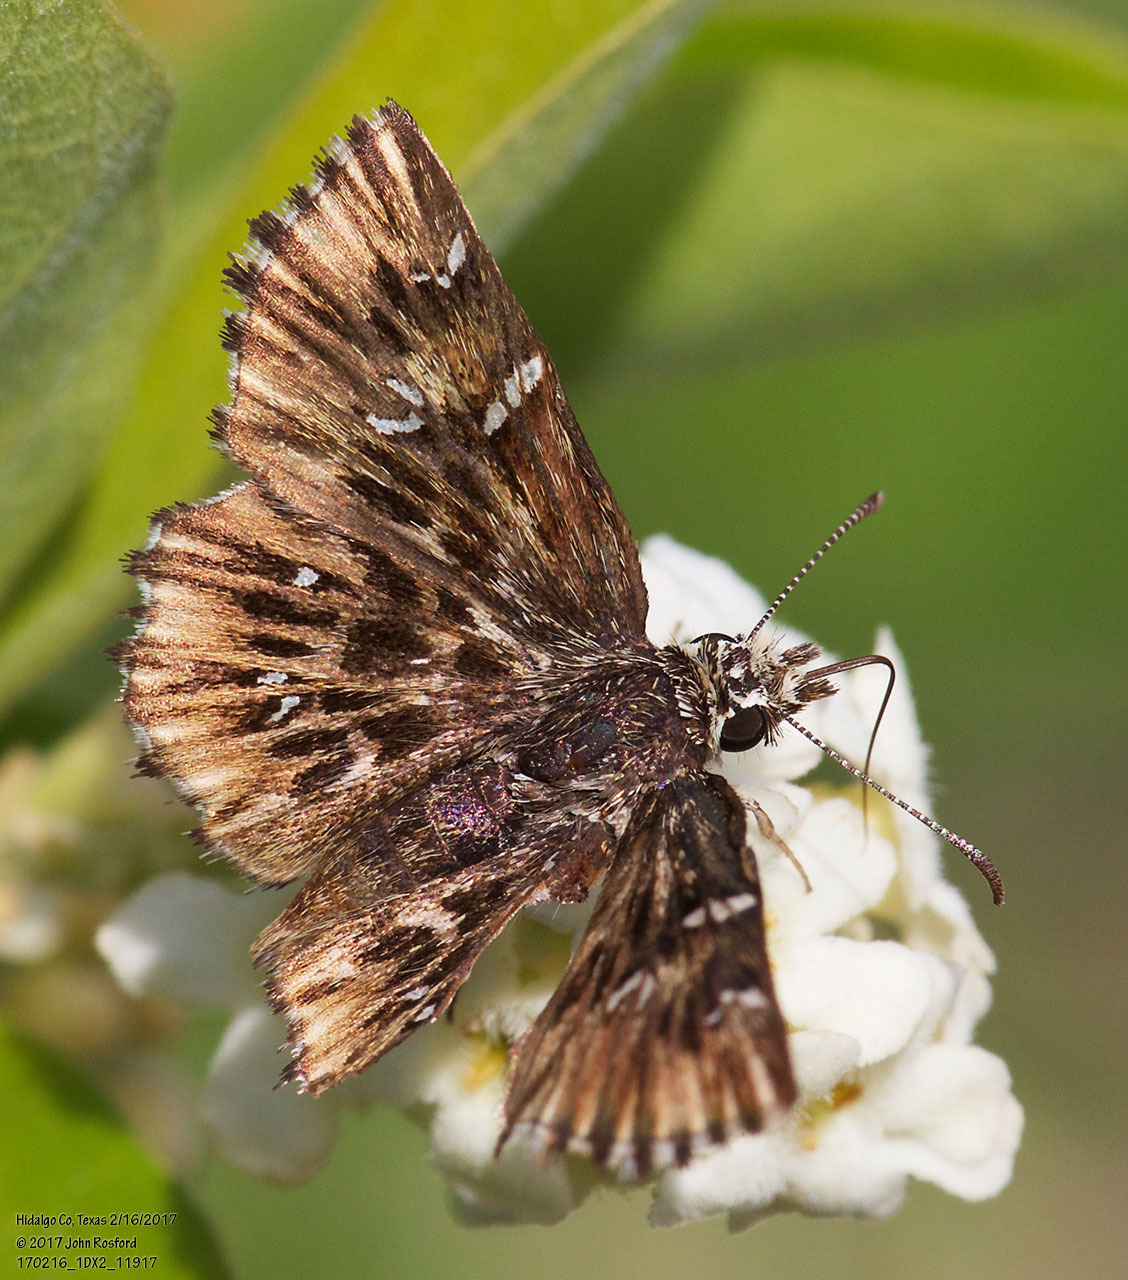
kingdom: Animalia
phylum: Arthropoda
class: Insecta
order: Lepidoptera
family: Hesperiidae
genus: Celotes
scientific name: Celotes nessus
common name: Common streaky-skipper
